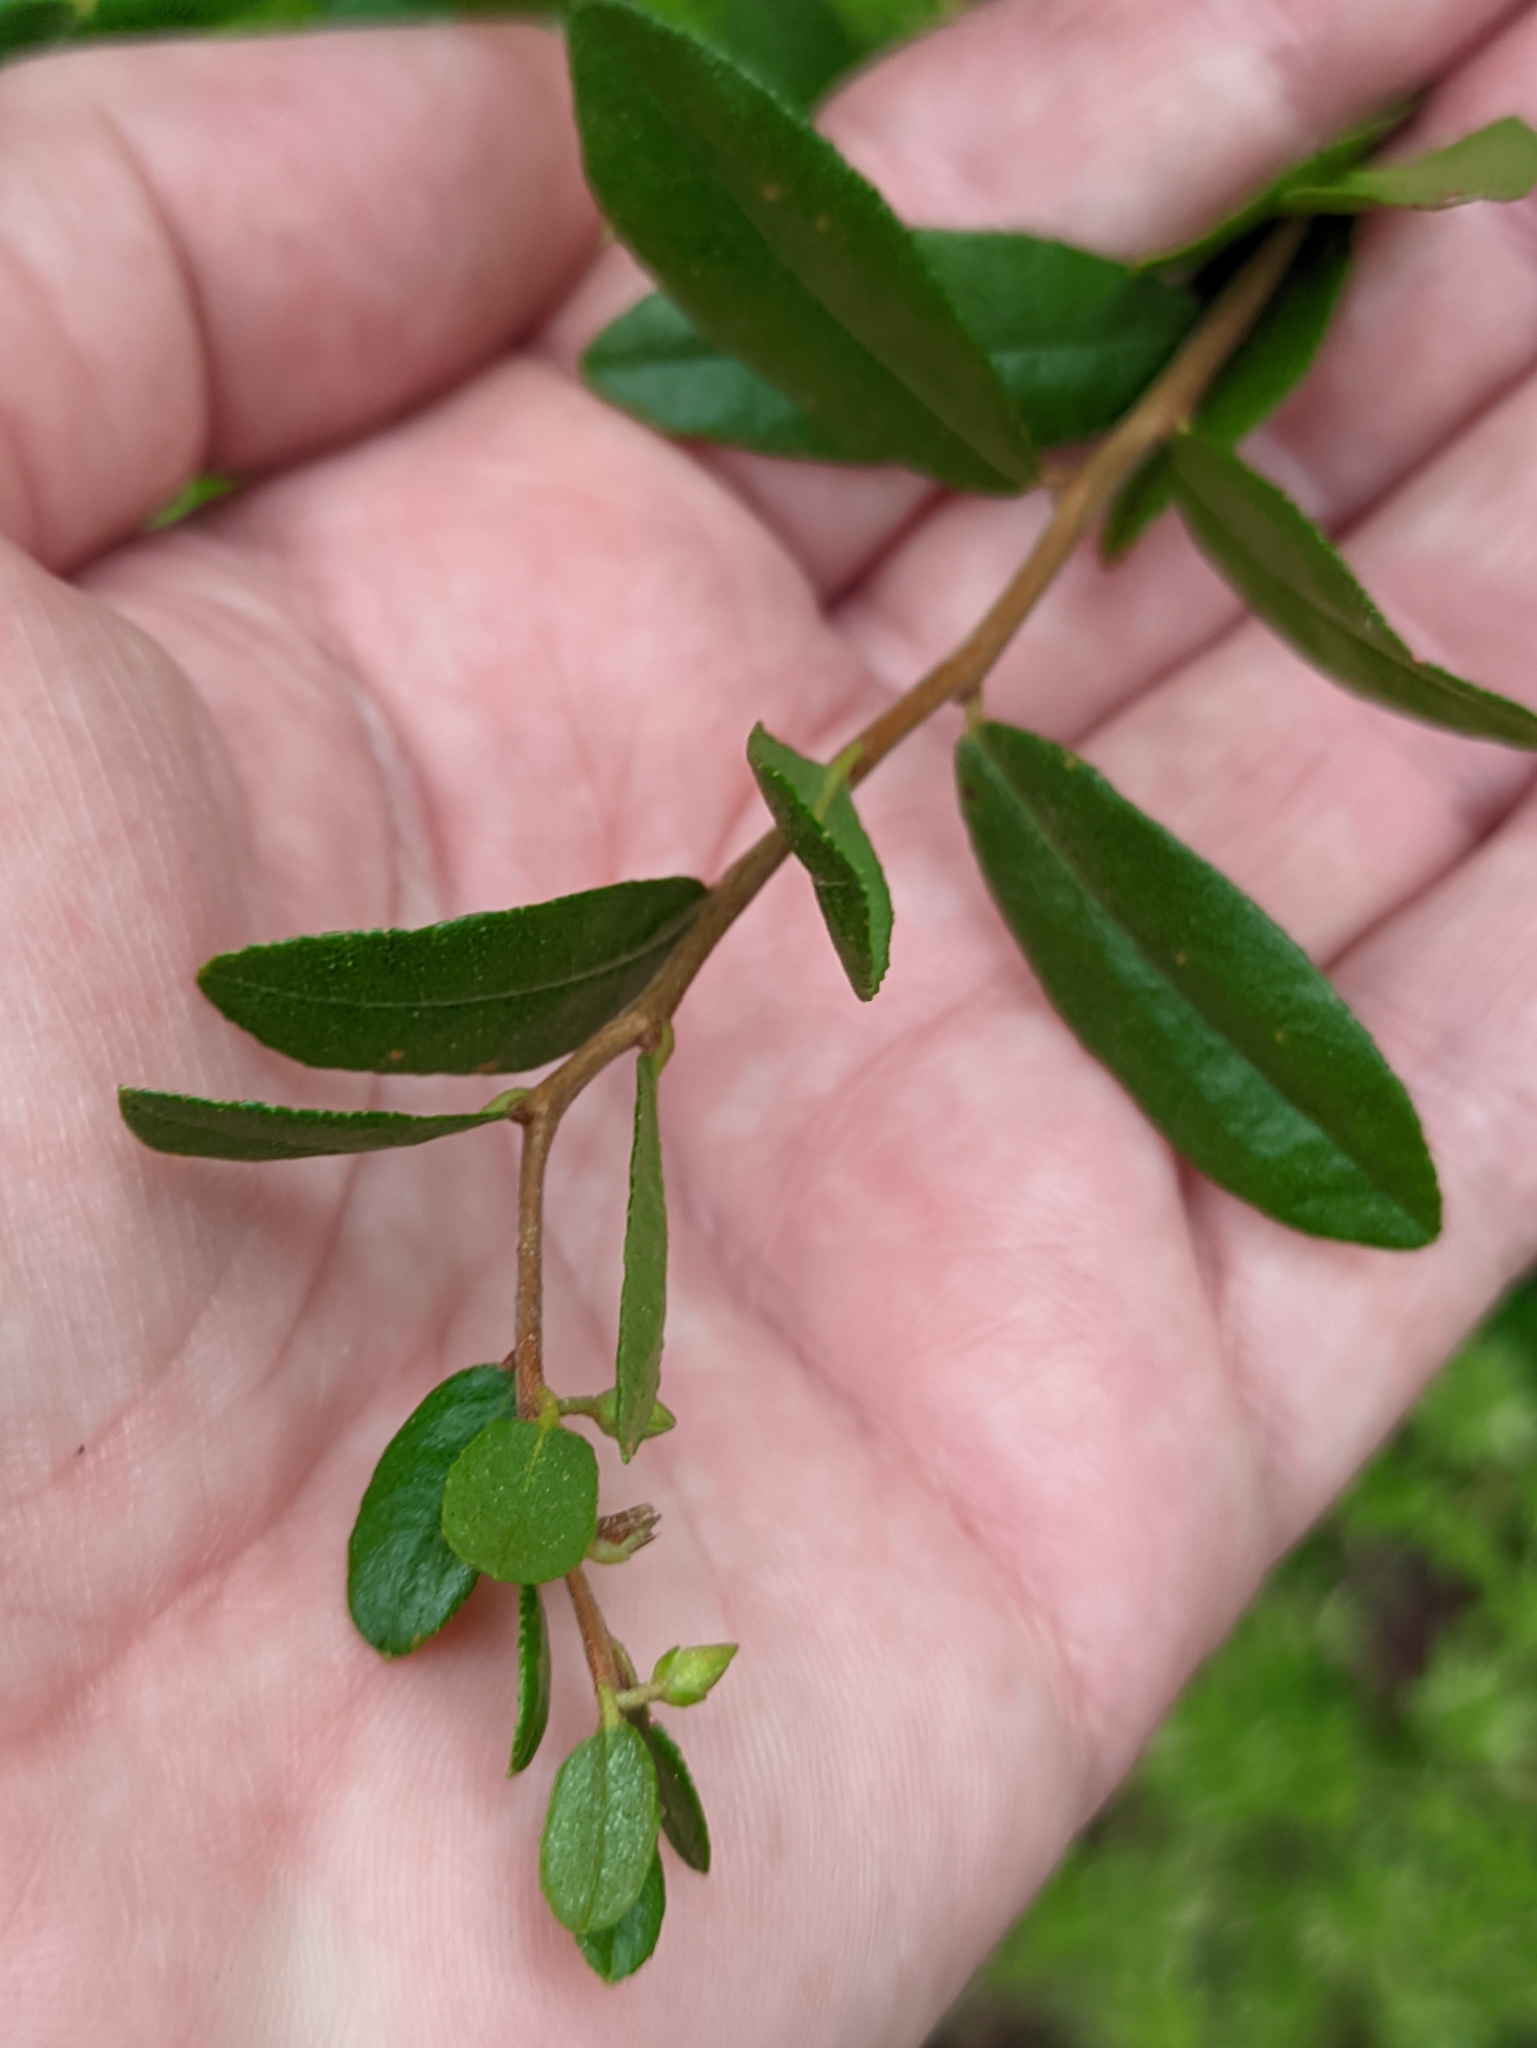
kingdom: Plantae
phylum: Tracheophyta
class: Magnoliopsida
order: Ericales
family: Ericaceae
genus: Chamaedaphne
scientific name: Chamaedaphne calyculata
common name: Leatherleaf
